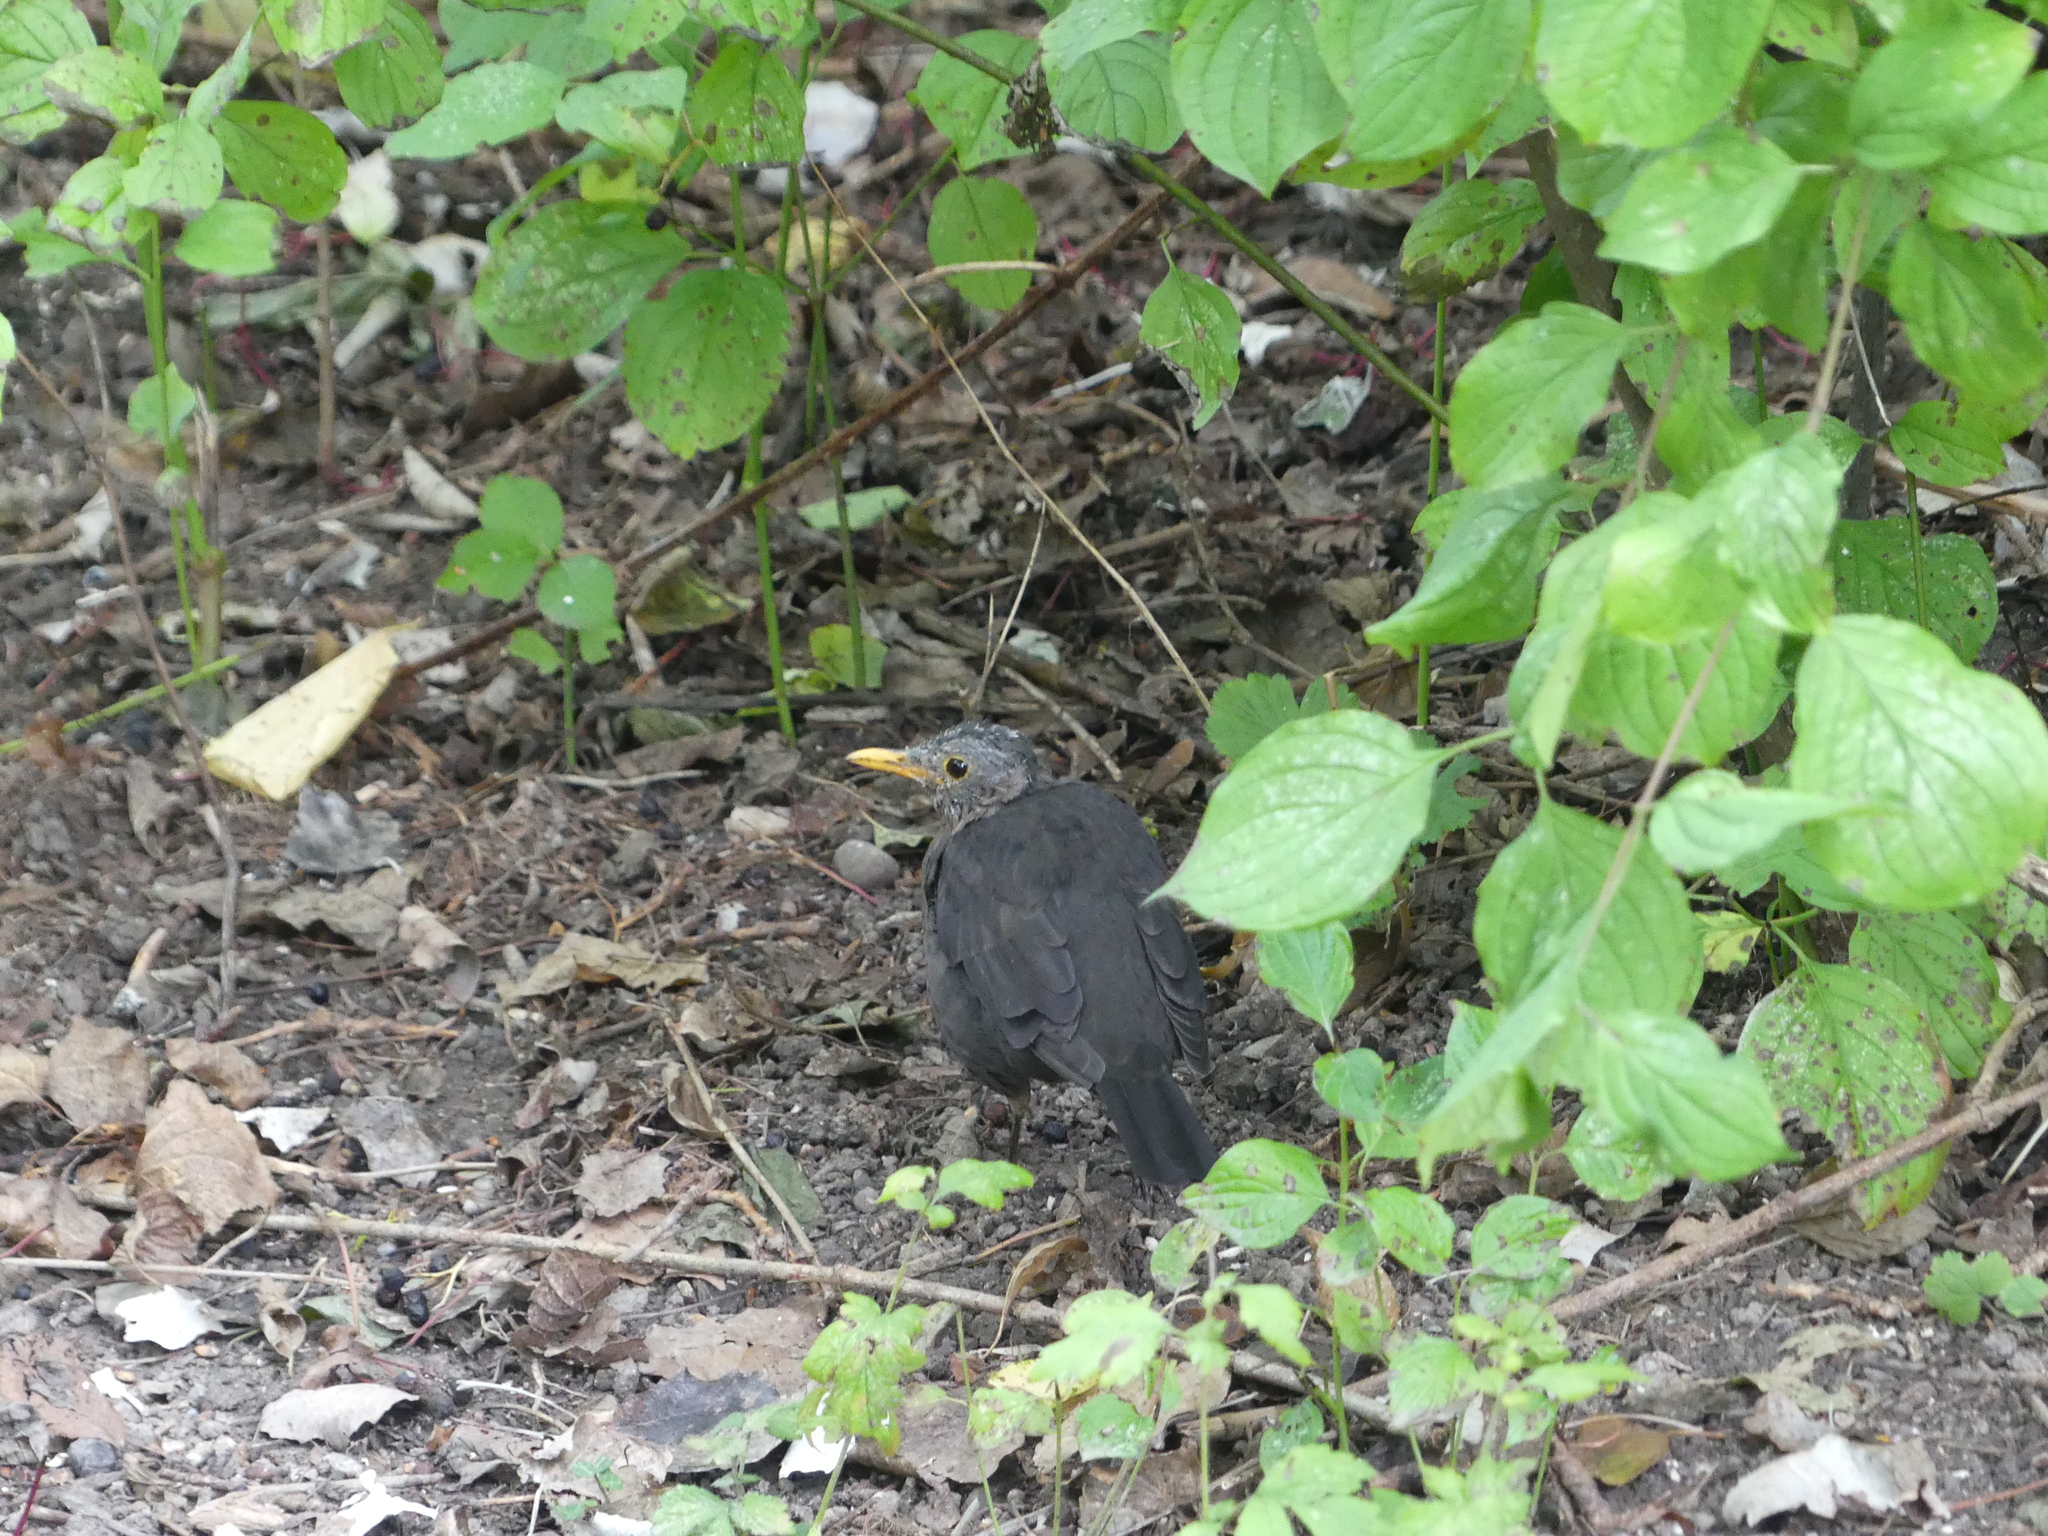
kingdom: Animalia
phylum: Chordata
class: Aves
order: Passeriformes
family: Turdidae
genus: Turdus
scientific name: Turdus merula
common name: Common blackbird
